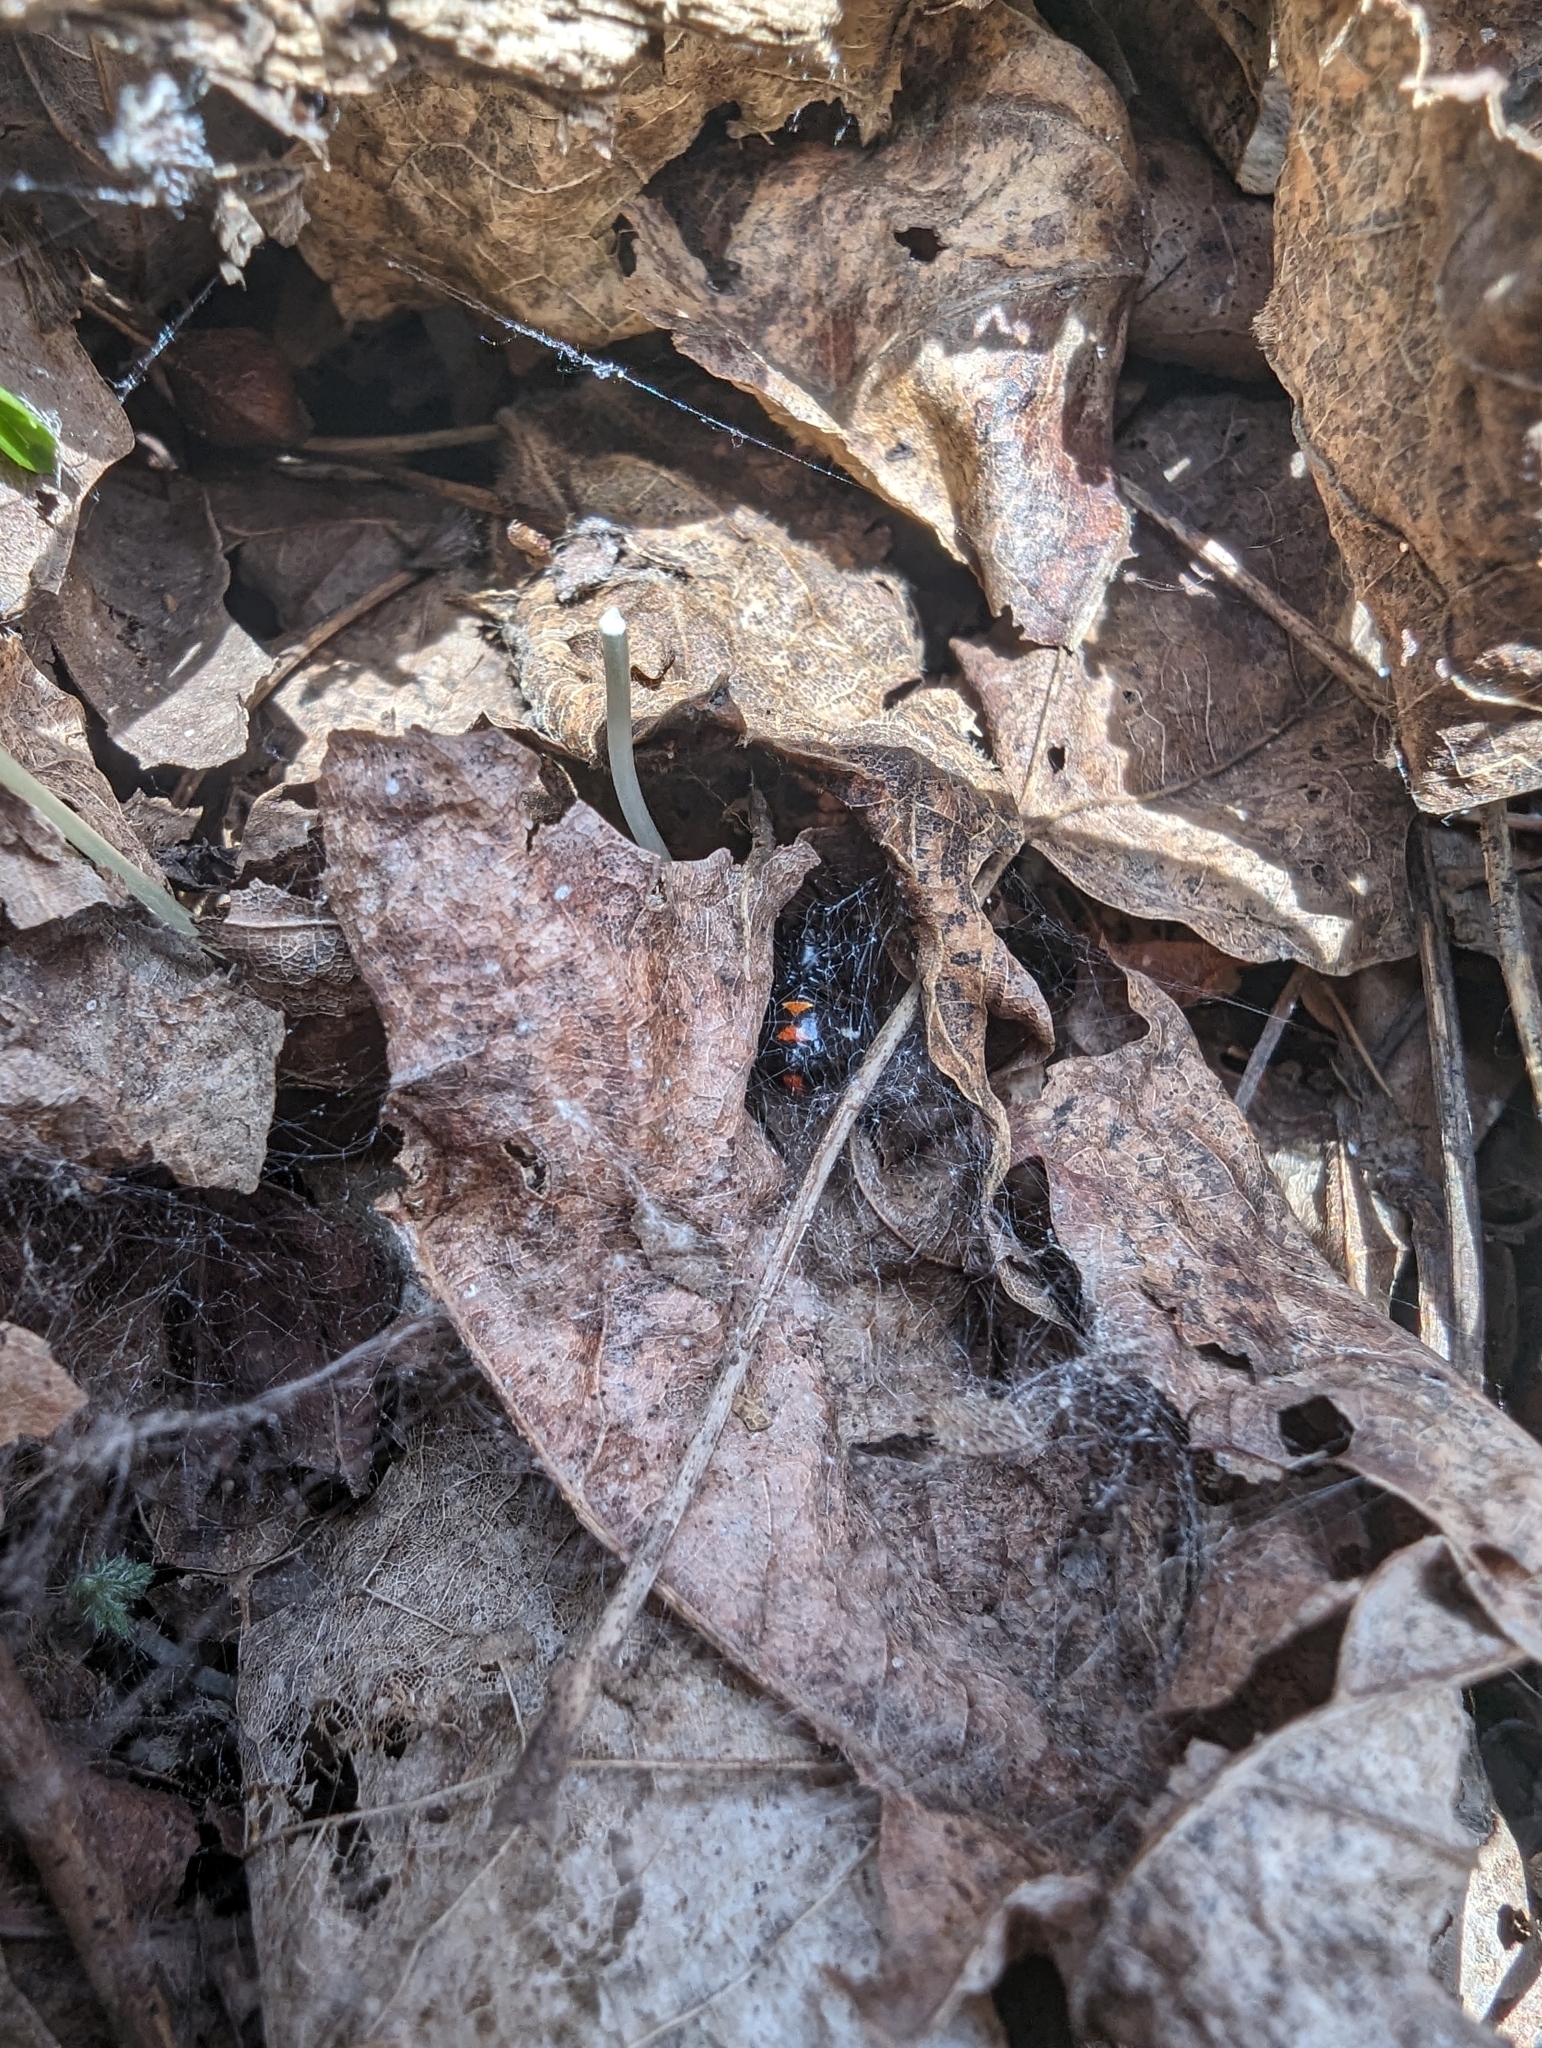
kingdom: Animalia
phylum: Arthropoda
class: Arachnida
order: Araneae
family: Theridiidae
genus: Latrodectus
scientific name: Latrodectus variolus
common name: Northern black widow
